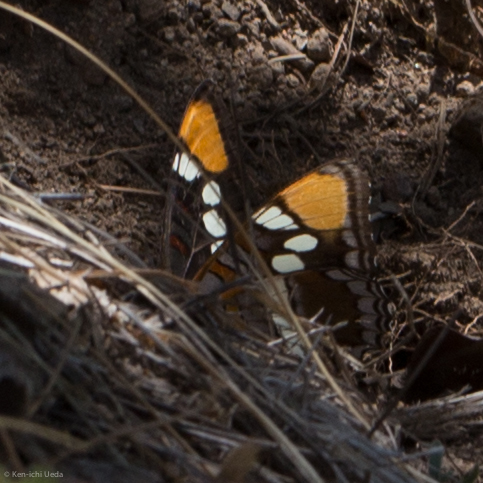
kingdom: Animalia
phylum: Arthropoda
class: Insecta
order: Lepidoptera
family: Nymphalidae
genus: Limenitis
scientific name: Limenitis bredowii
